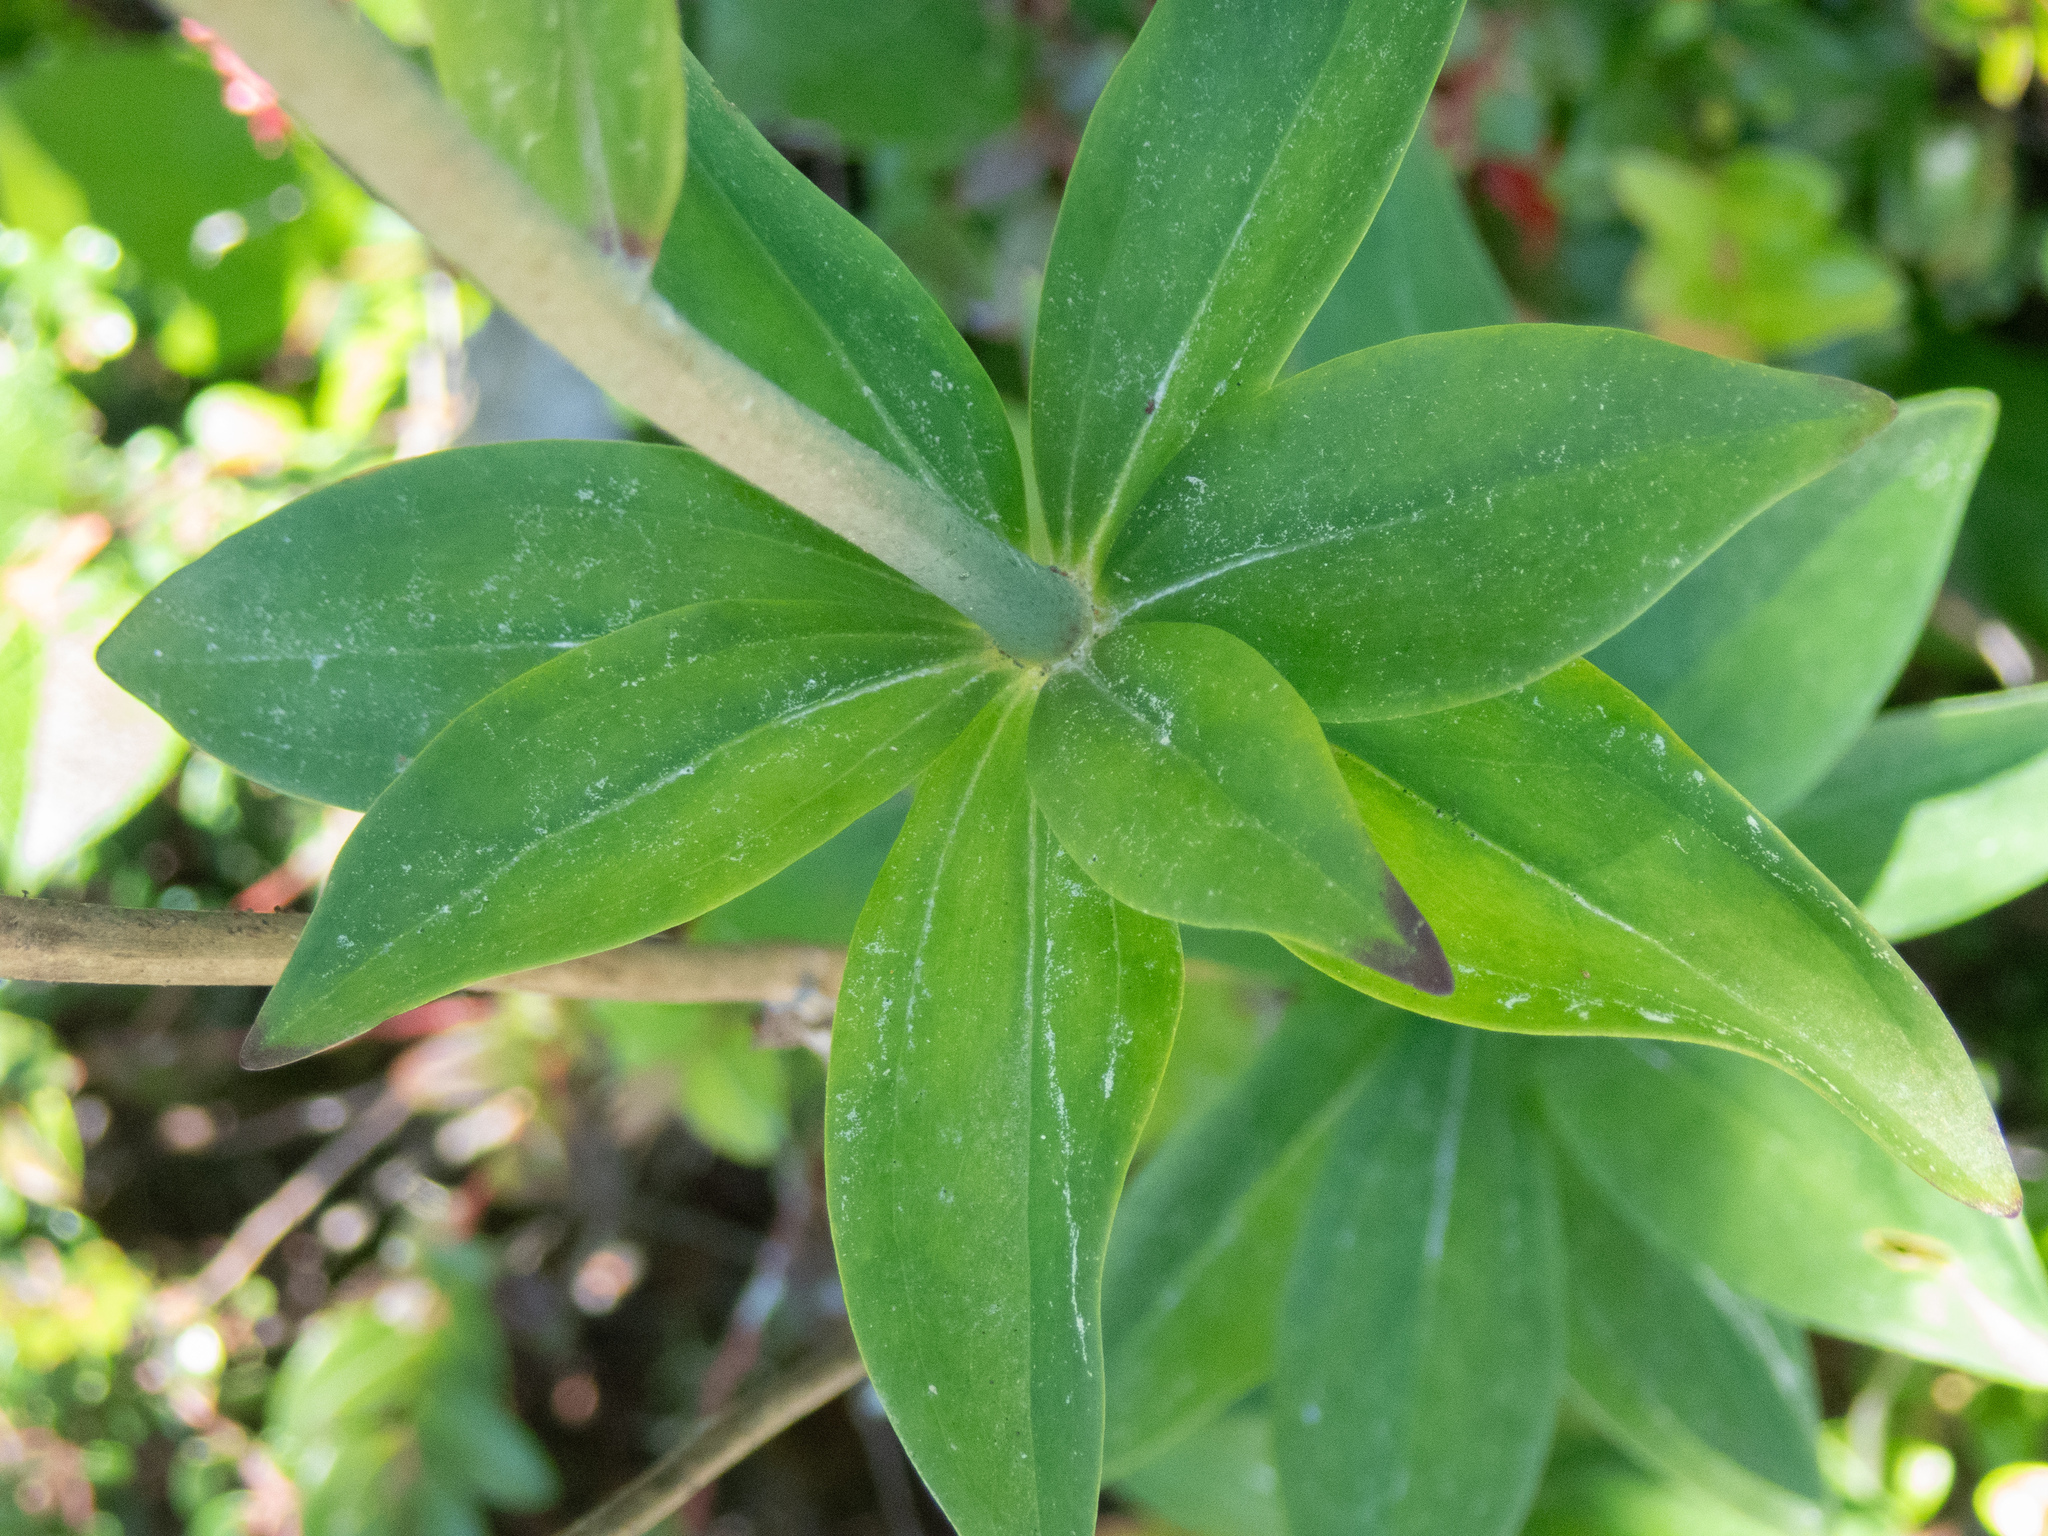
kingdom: Plantae
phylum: Tracheophyta
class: Liliopsida
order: Liliales
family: Liliaceae
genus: Lilium
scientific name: Lilium maritimum
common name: Coastal lily
